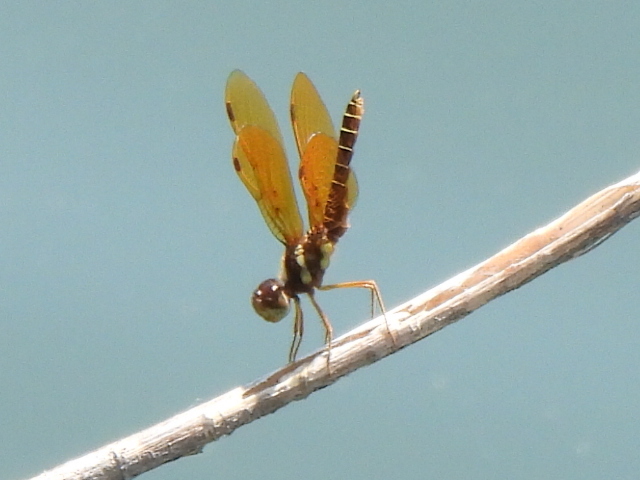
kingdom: Animalia
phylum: Arthropoda
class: Insecta
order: Odonata
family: Libellulidae
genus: Perithemis
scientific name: Perithemis tenera
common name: Eastern amberwing
